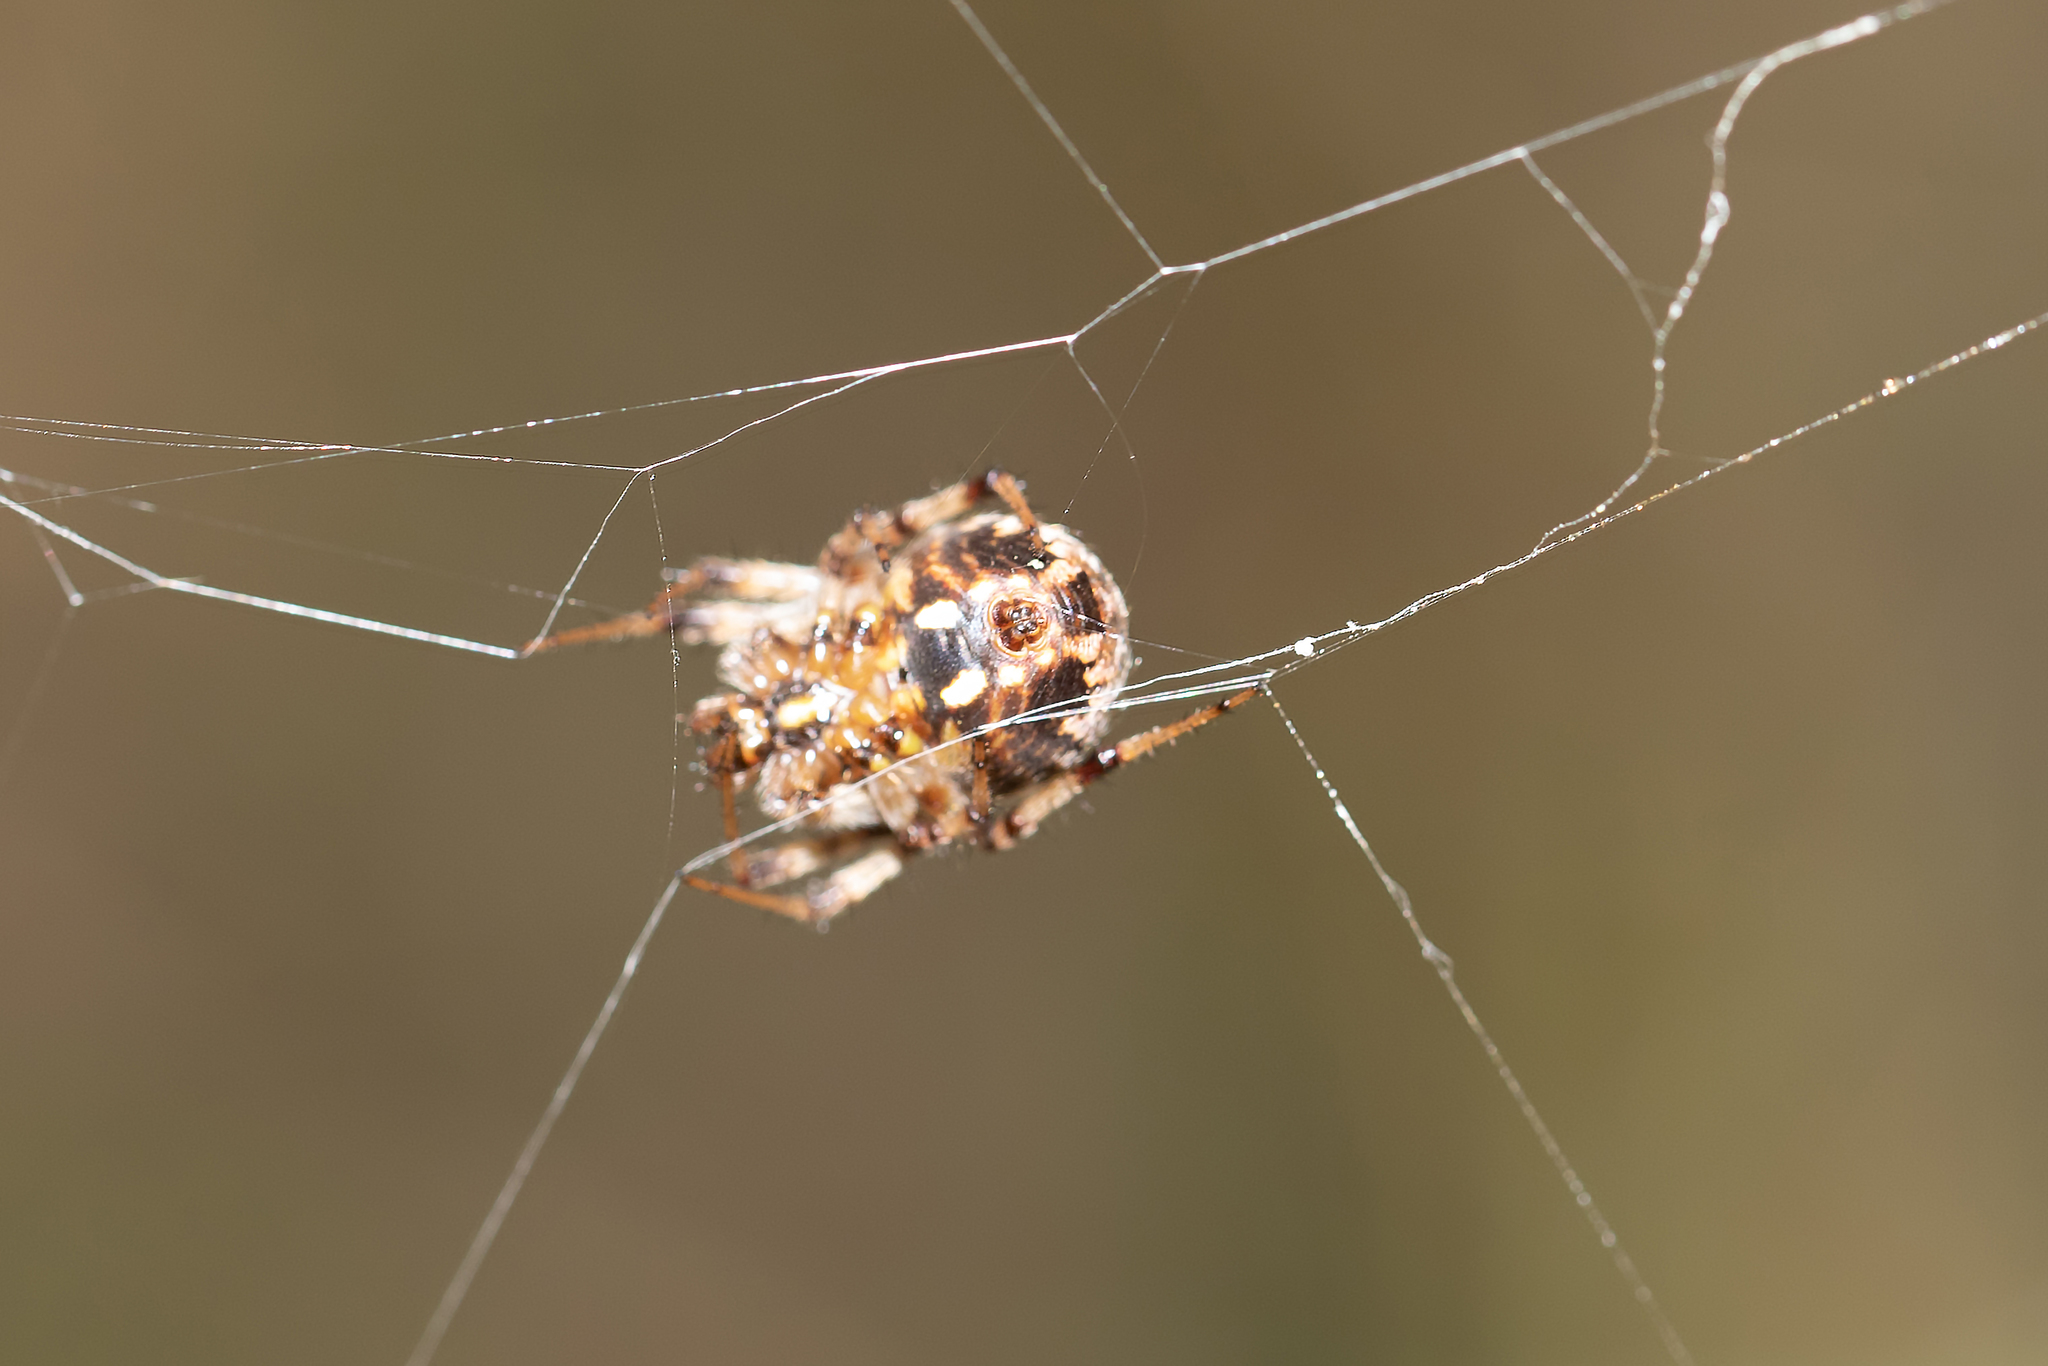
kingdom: Animalia
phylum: Arthropoda
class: Arachnida
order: Araneae
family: Araneidae
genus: Neoscona
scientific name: Neoscona arabesca
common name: Orb weavers
